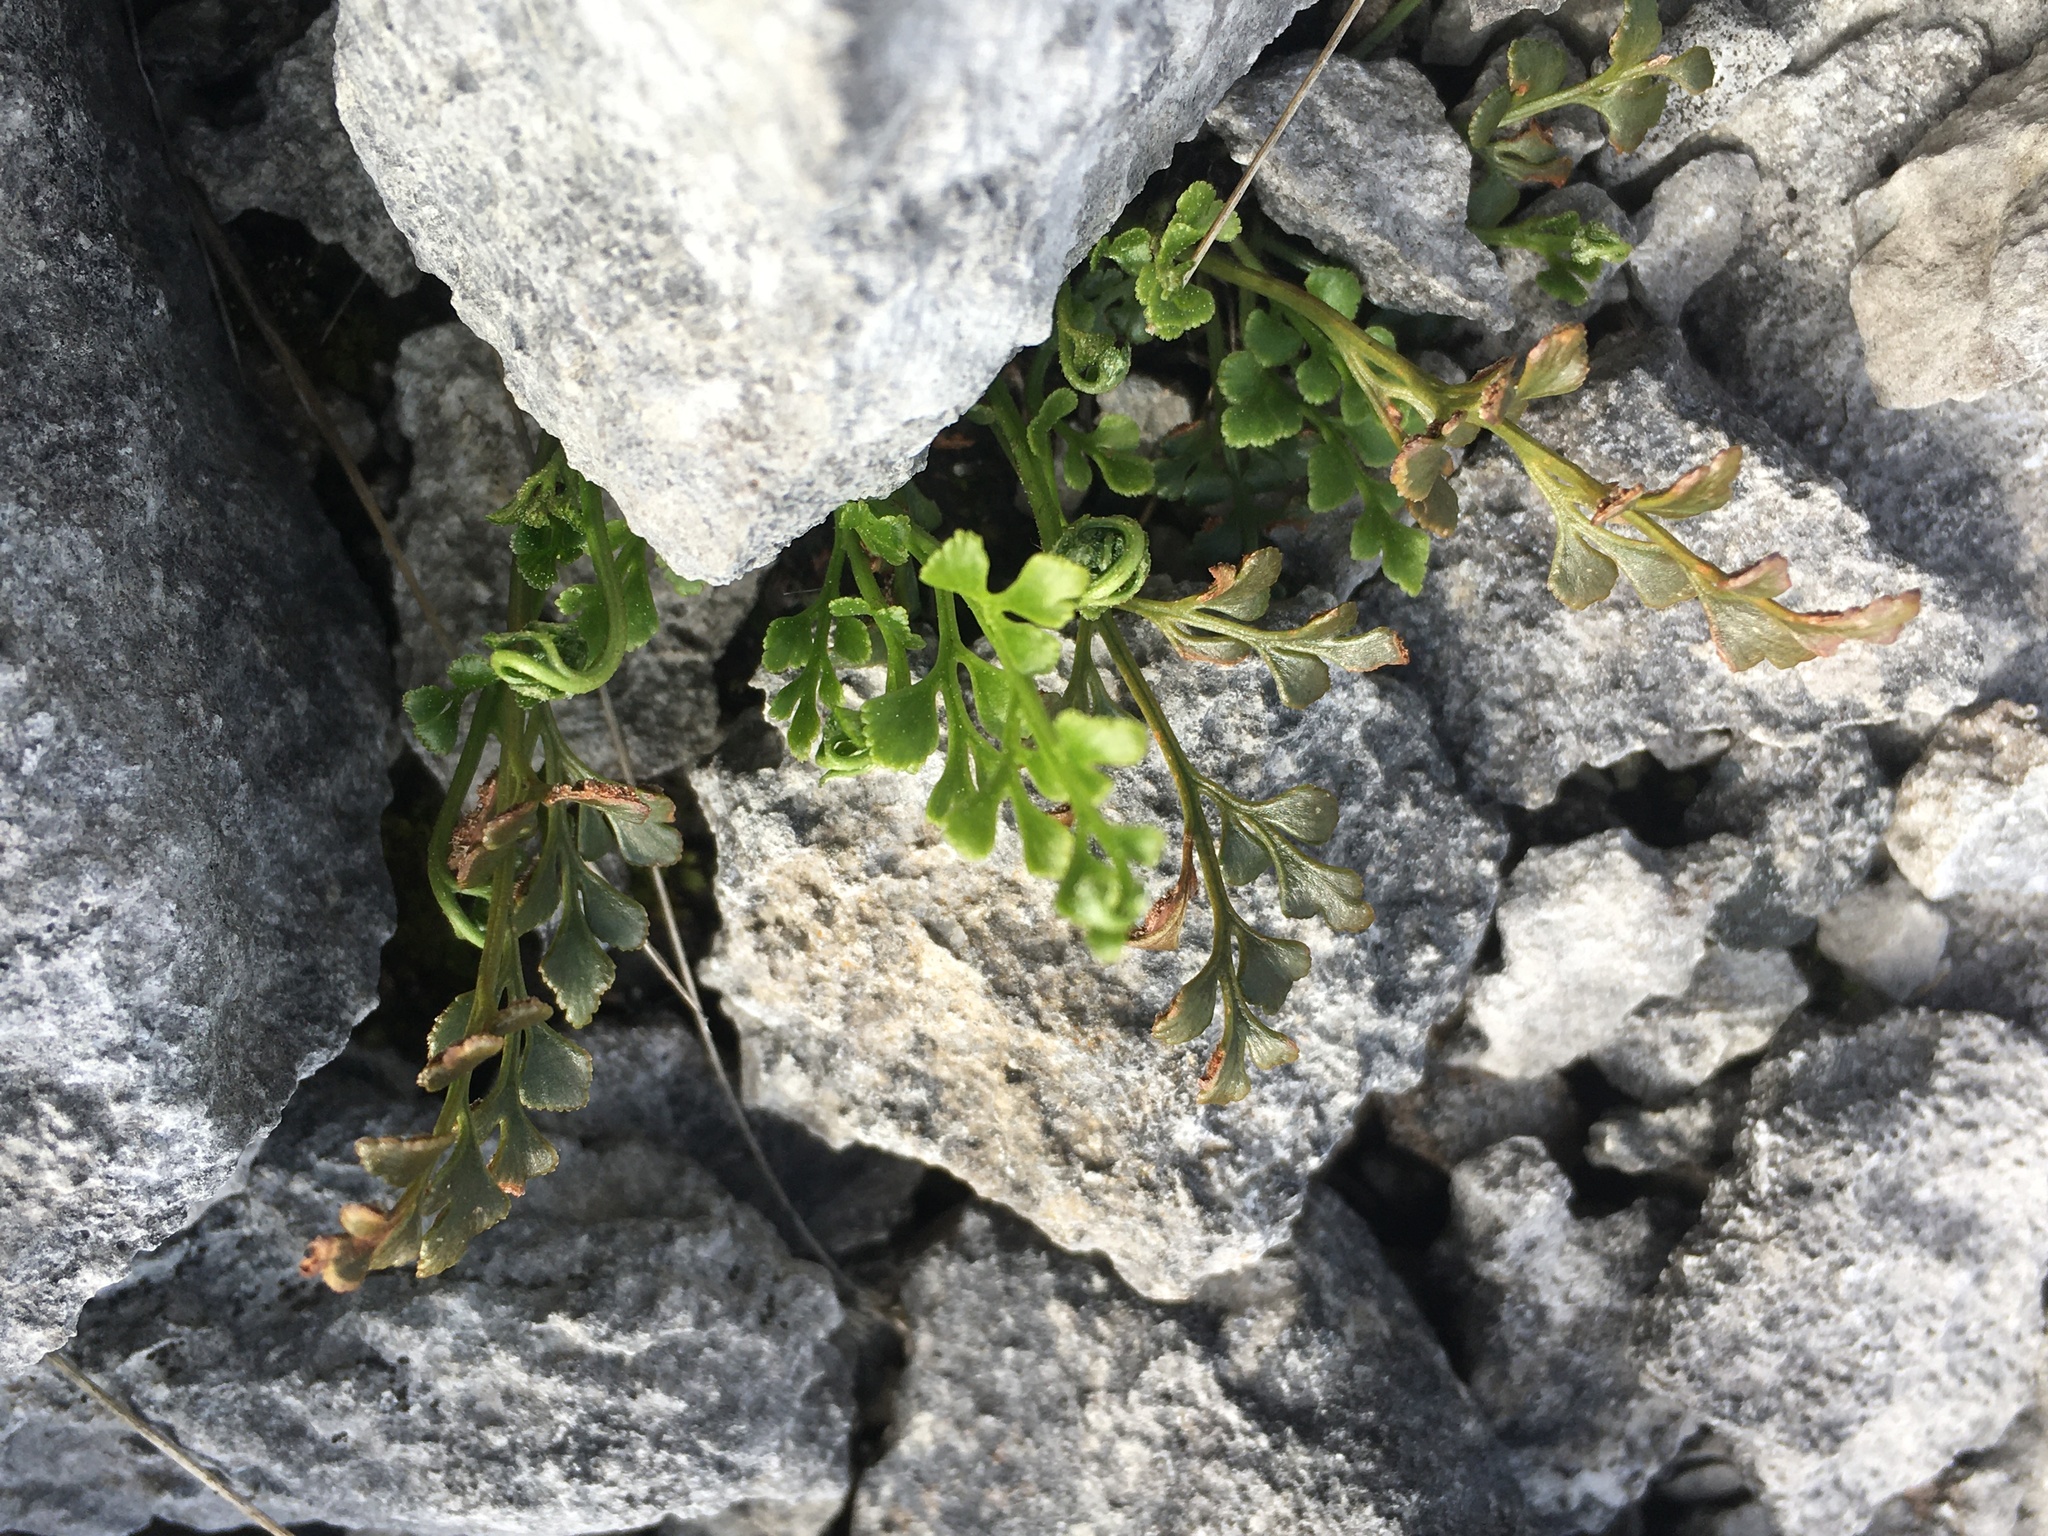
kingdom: Plantae
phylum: Tracheophyta
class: Polypodiopsida
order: Polypodiales
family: Aspleniaceae
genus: Asplenium
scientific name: Asplenium ruta-muraria
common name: Wall-rue
